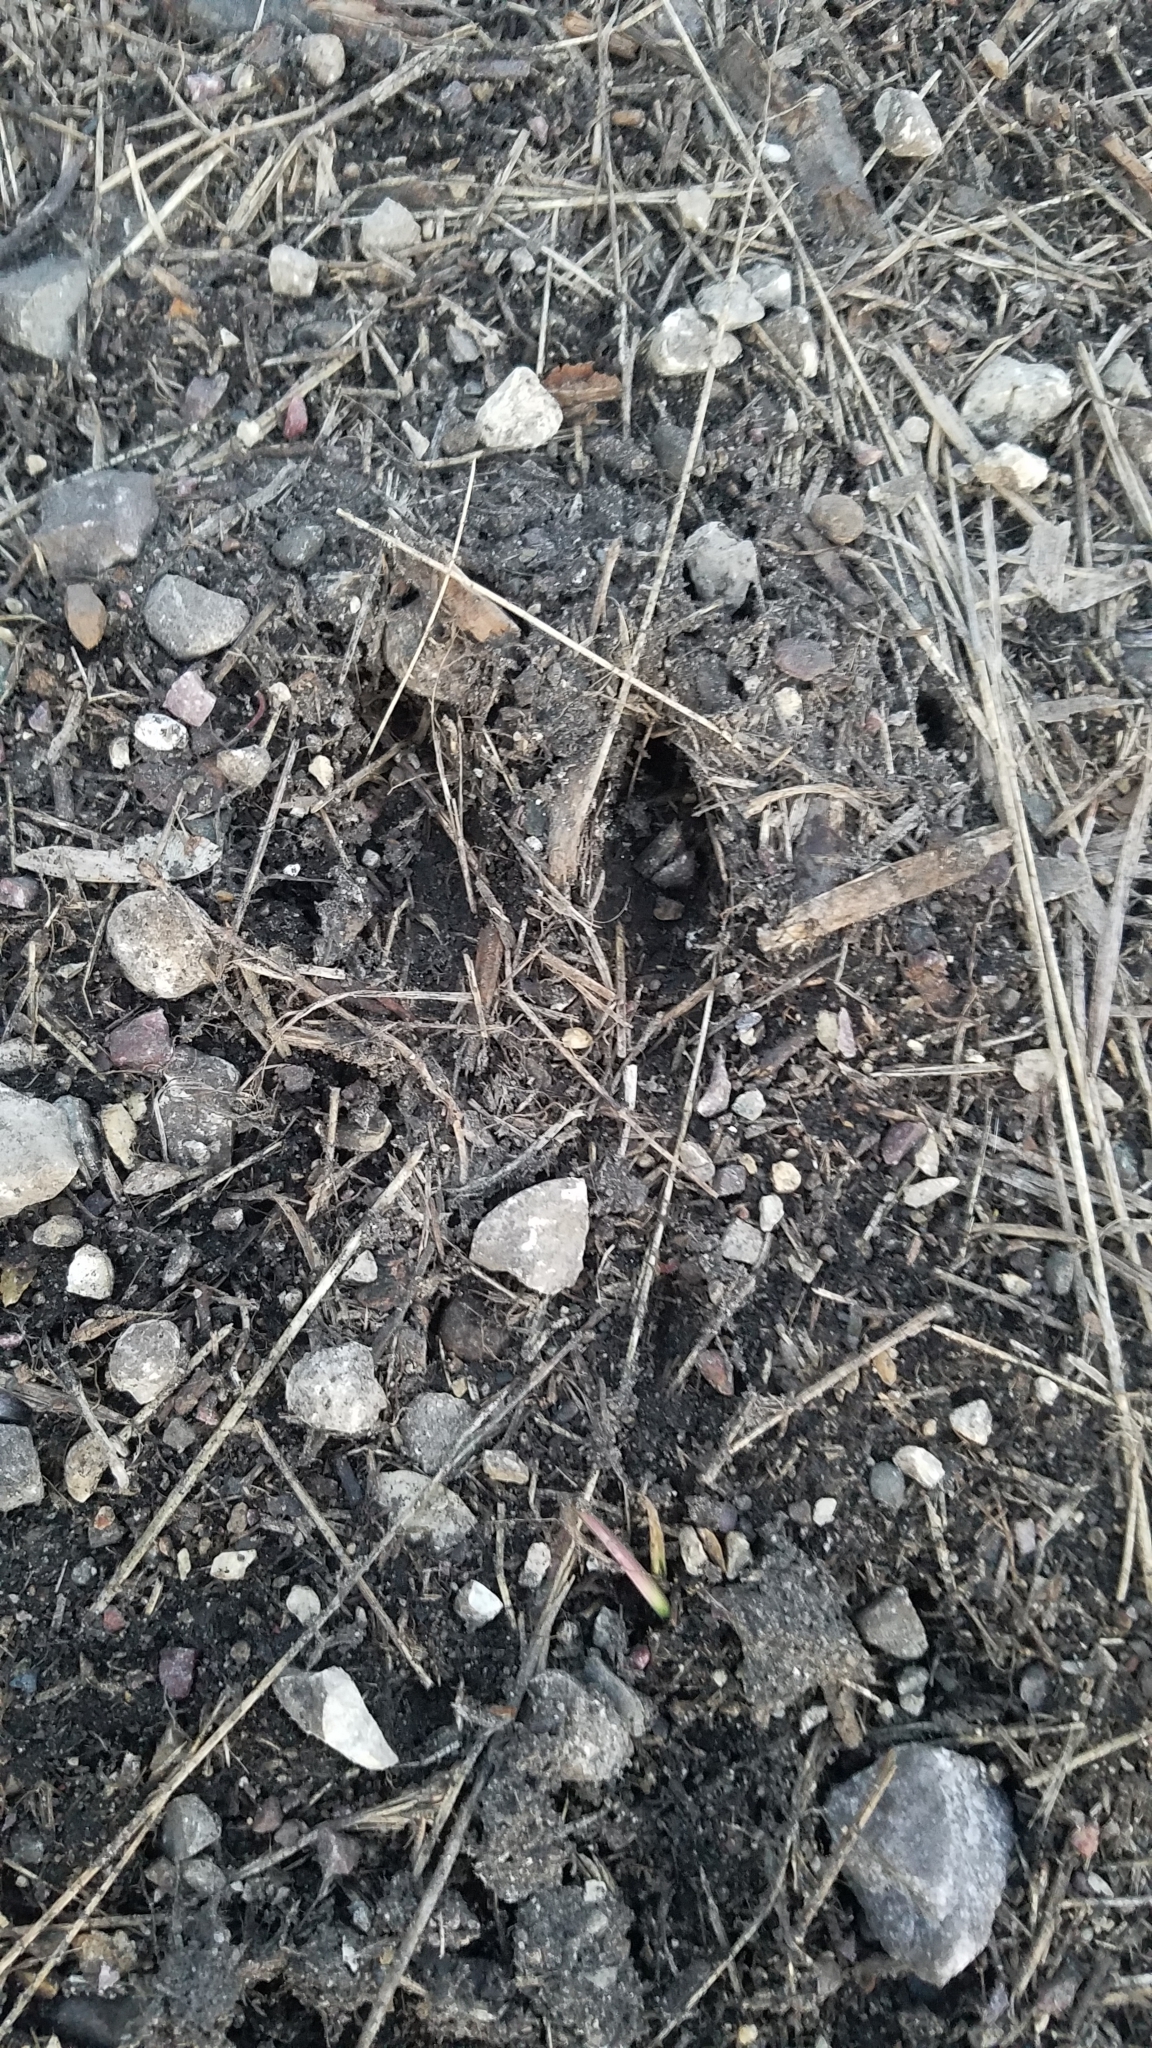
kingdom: Animalia
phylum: Chordata
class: Mammalia
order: Artiodactyla
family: Cervidae
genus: Odocoileus
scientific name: Odocoileus virginianus
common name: White-tailed deer
